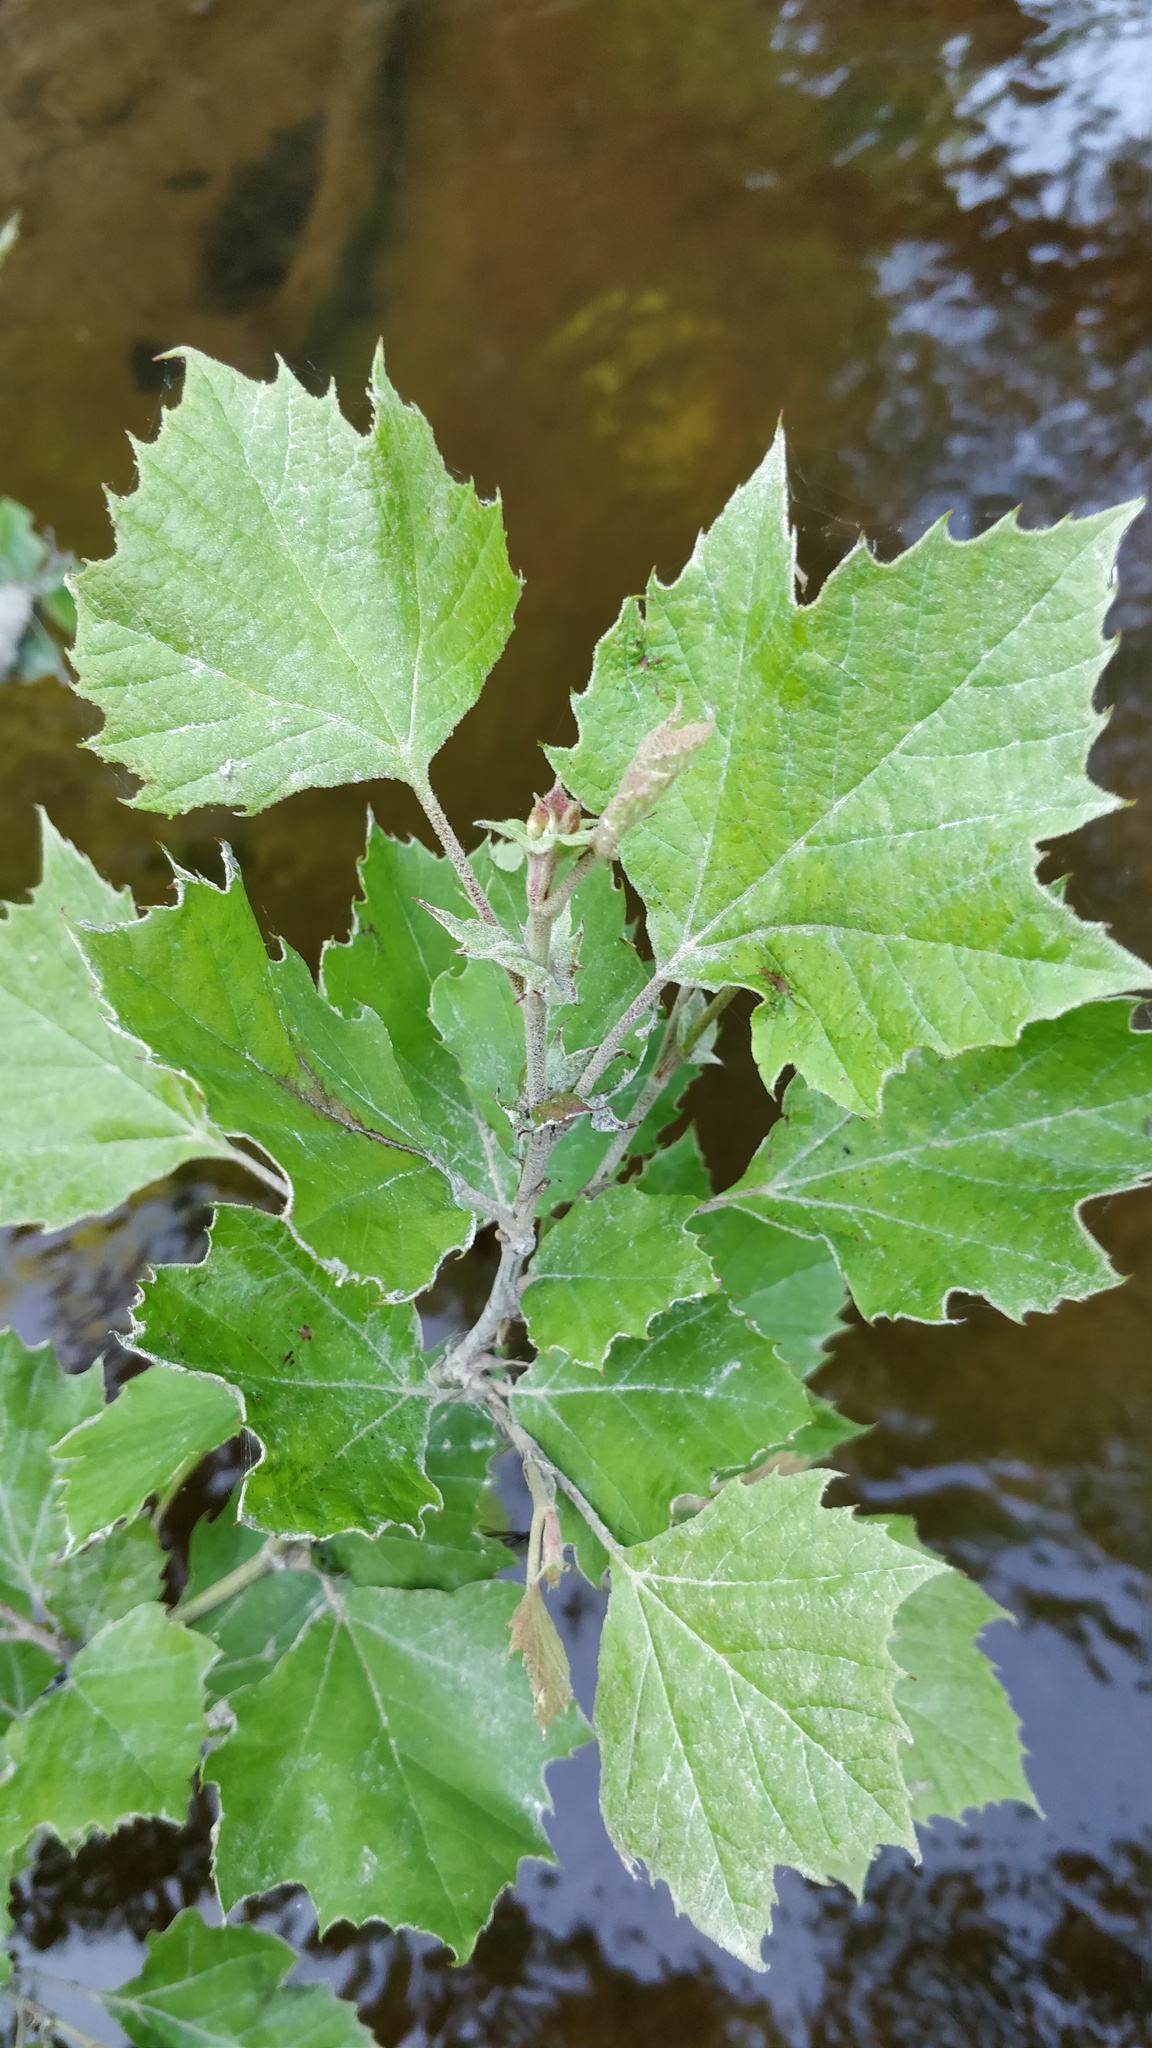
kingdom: Plantae
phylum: Tracheophyta
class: Magnoliopsida
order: Proteales
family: Platanaceae
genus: Platanus
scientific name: Platanus occidentalis
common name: American sycamore
